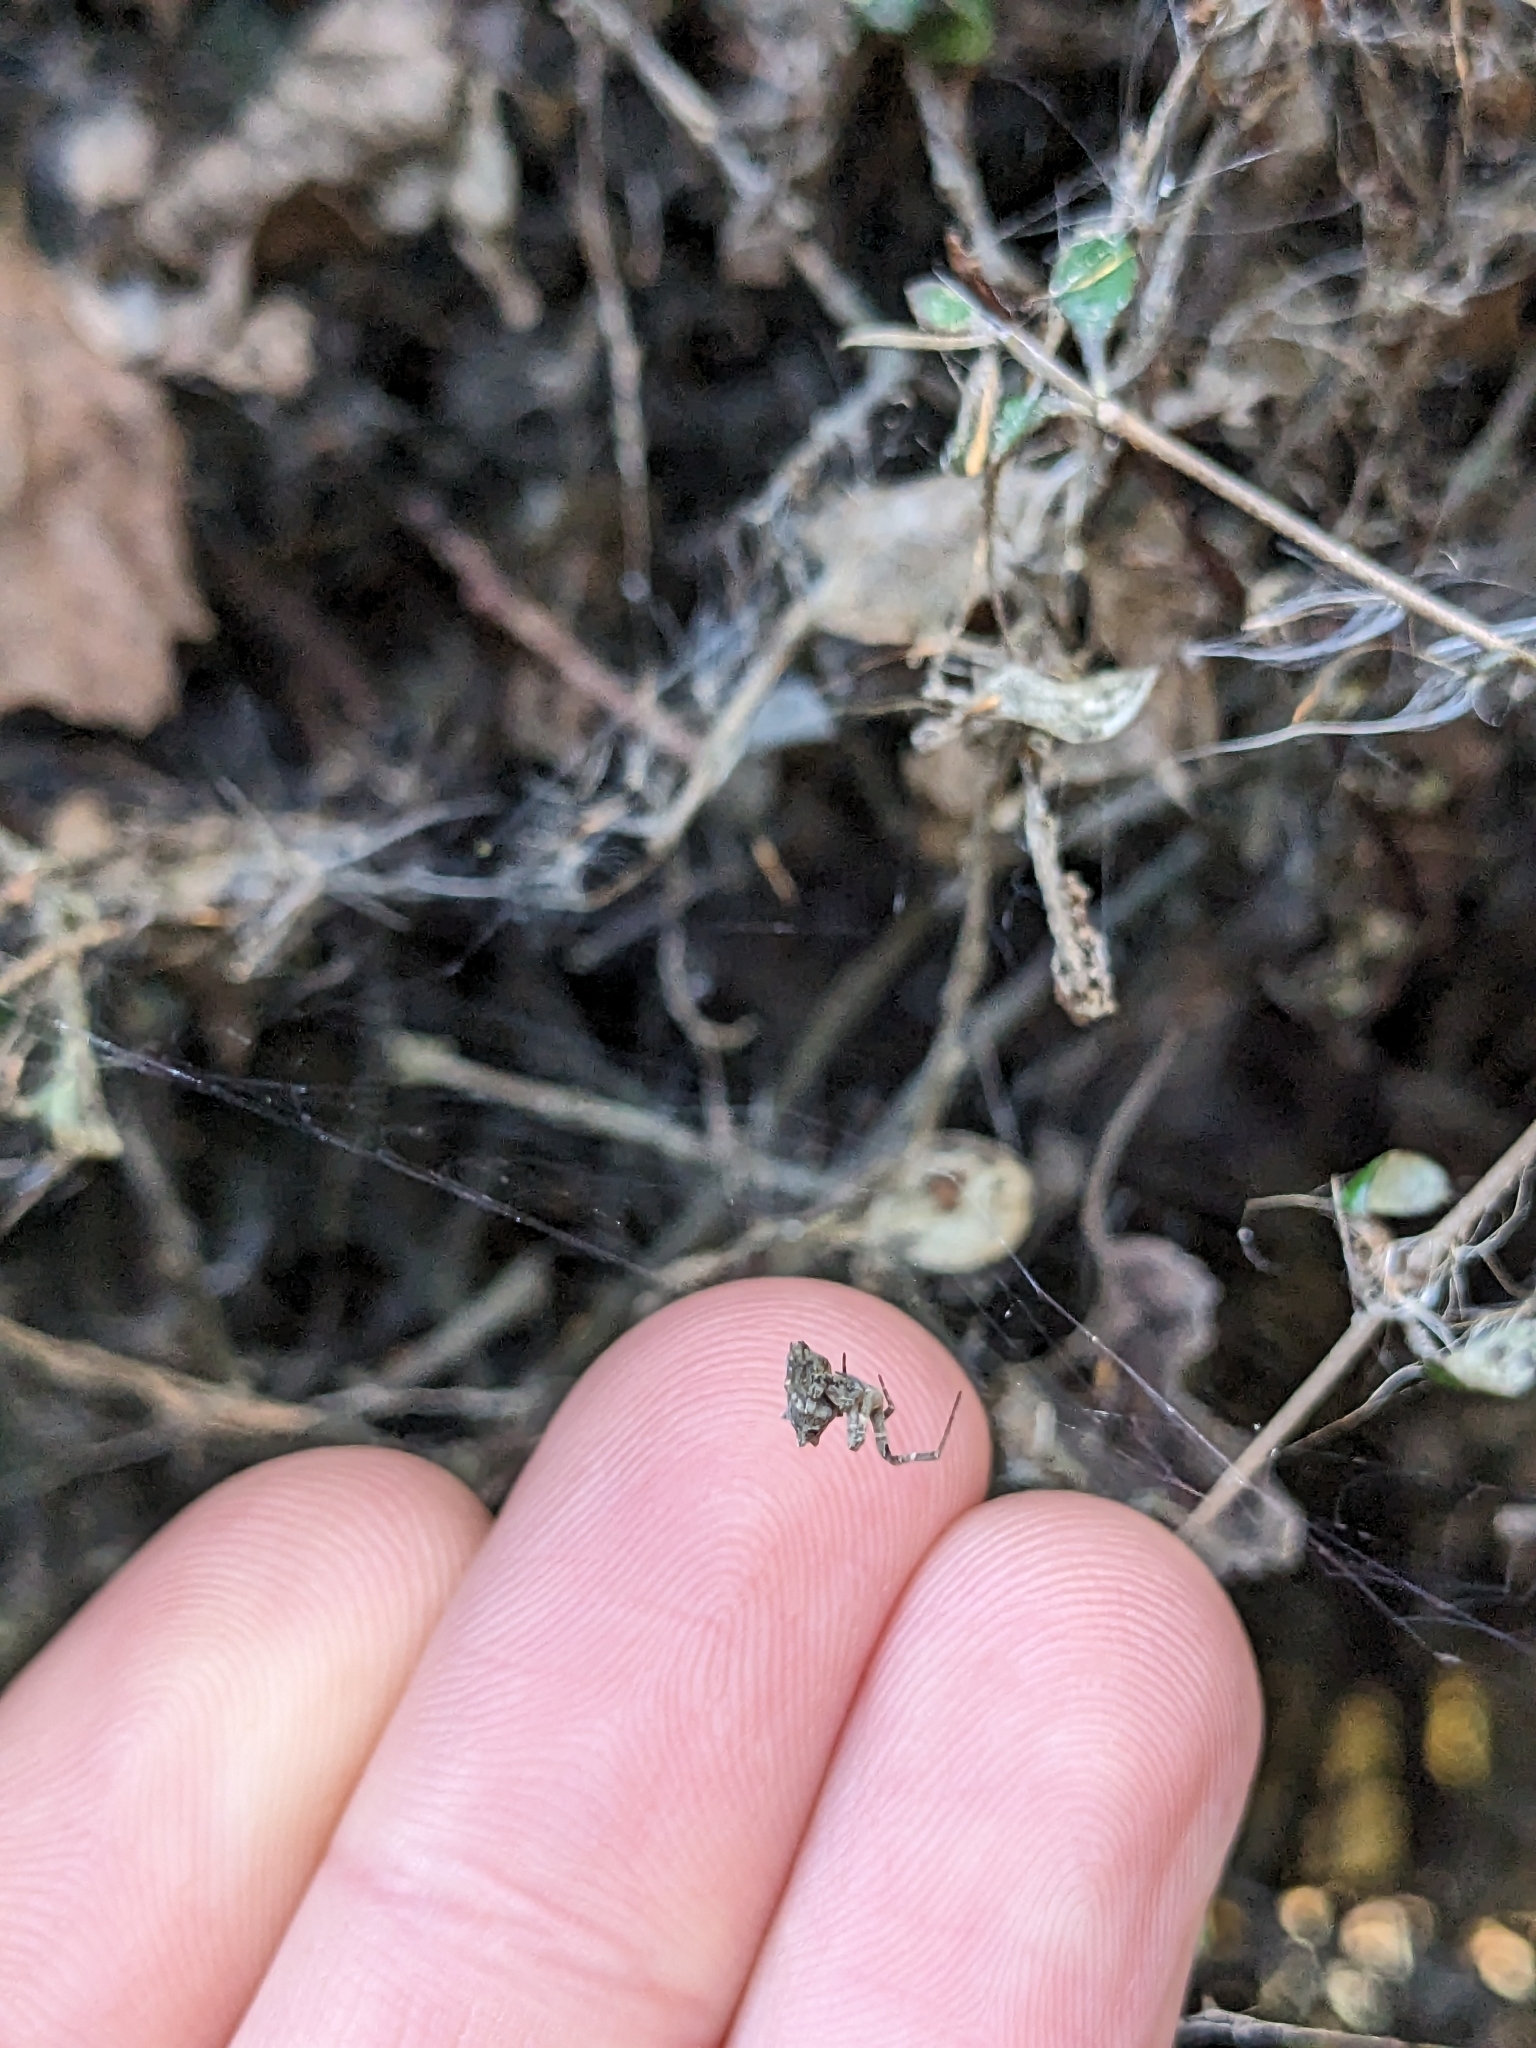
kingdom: Animalia
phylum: Arthropoda
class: Arachnida
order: Araneae
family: Uloboridae
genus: Philoponella
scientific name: Philoponella congregabilis
